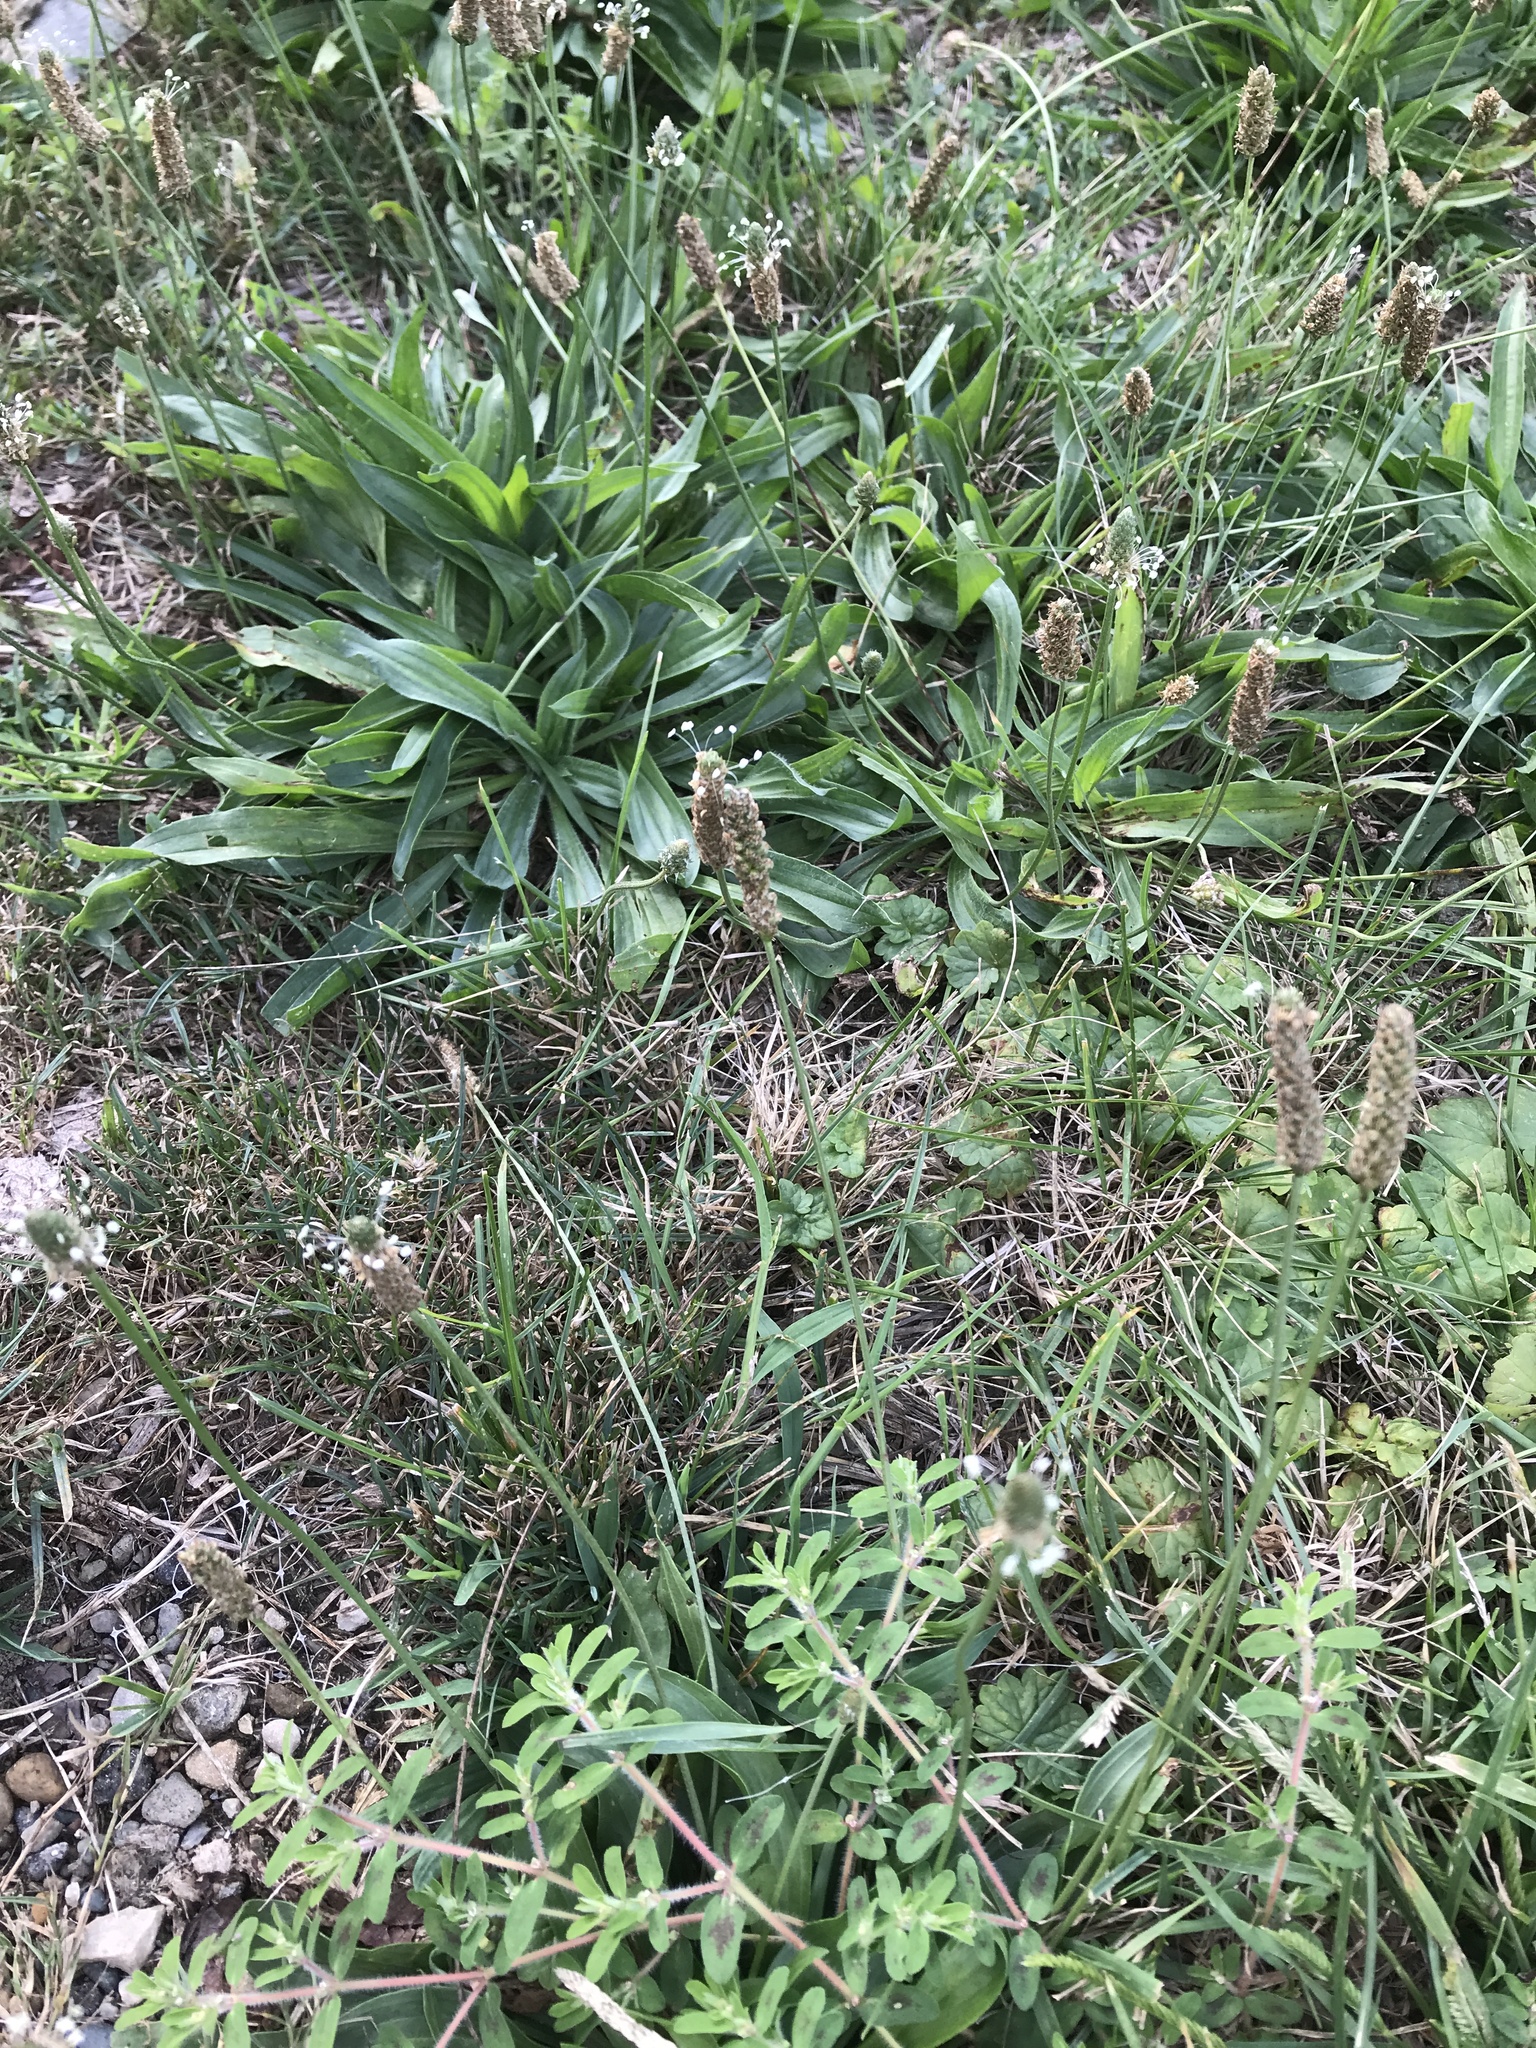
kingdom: Plantae
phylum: Tracheophyta
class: Magnoliopsida
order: Lamiales
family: Plantaginaceae
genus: Plantago
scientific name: Plantago lanceolata
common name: Ribwort plantain
